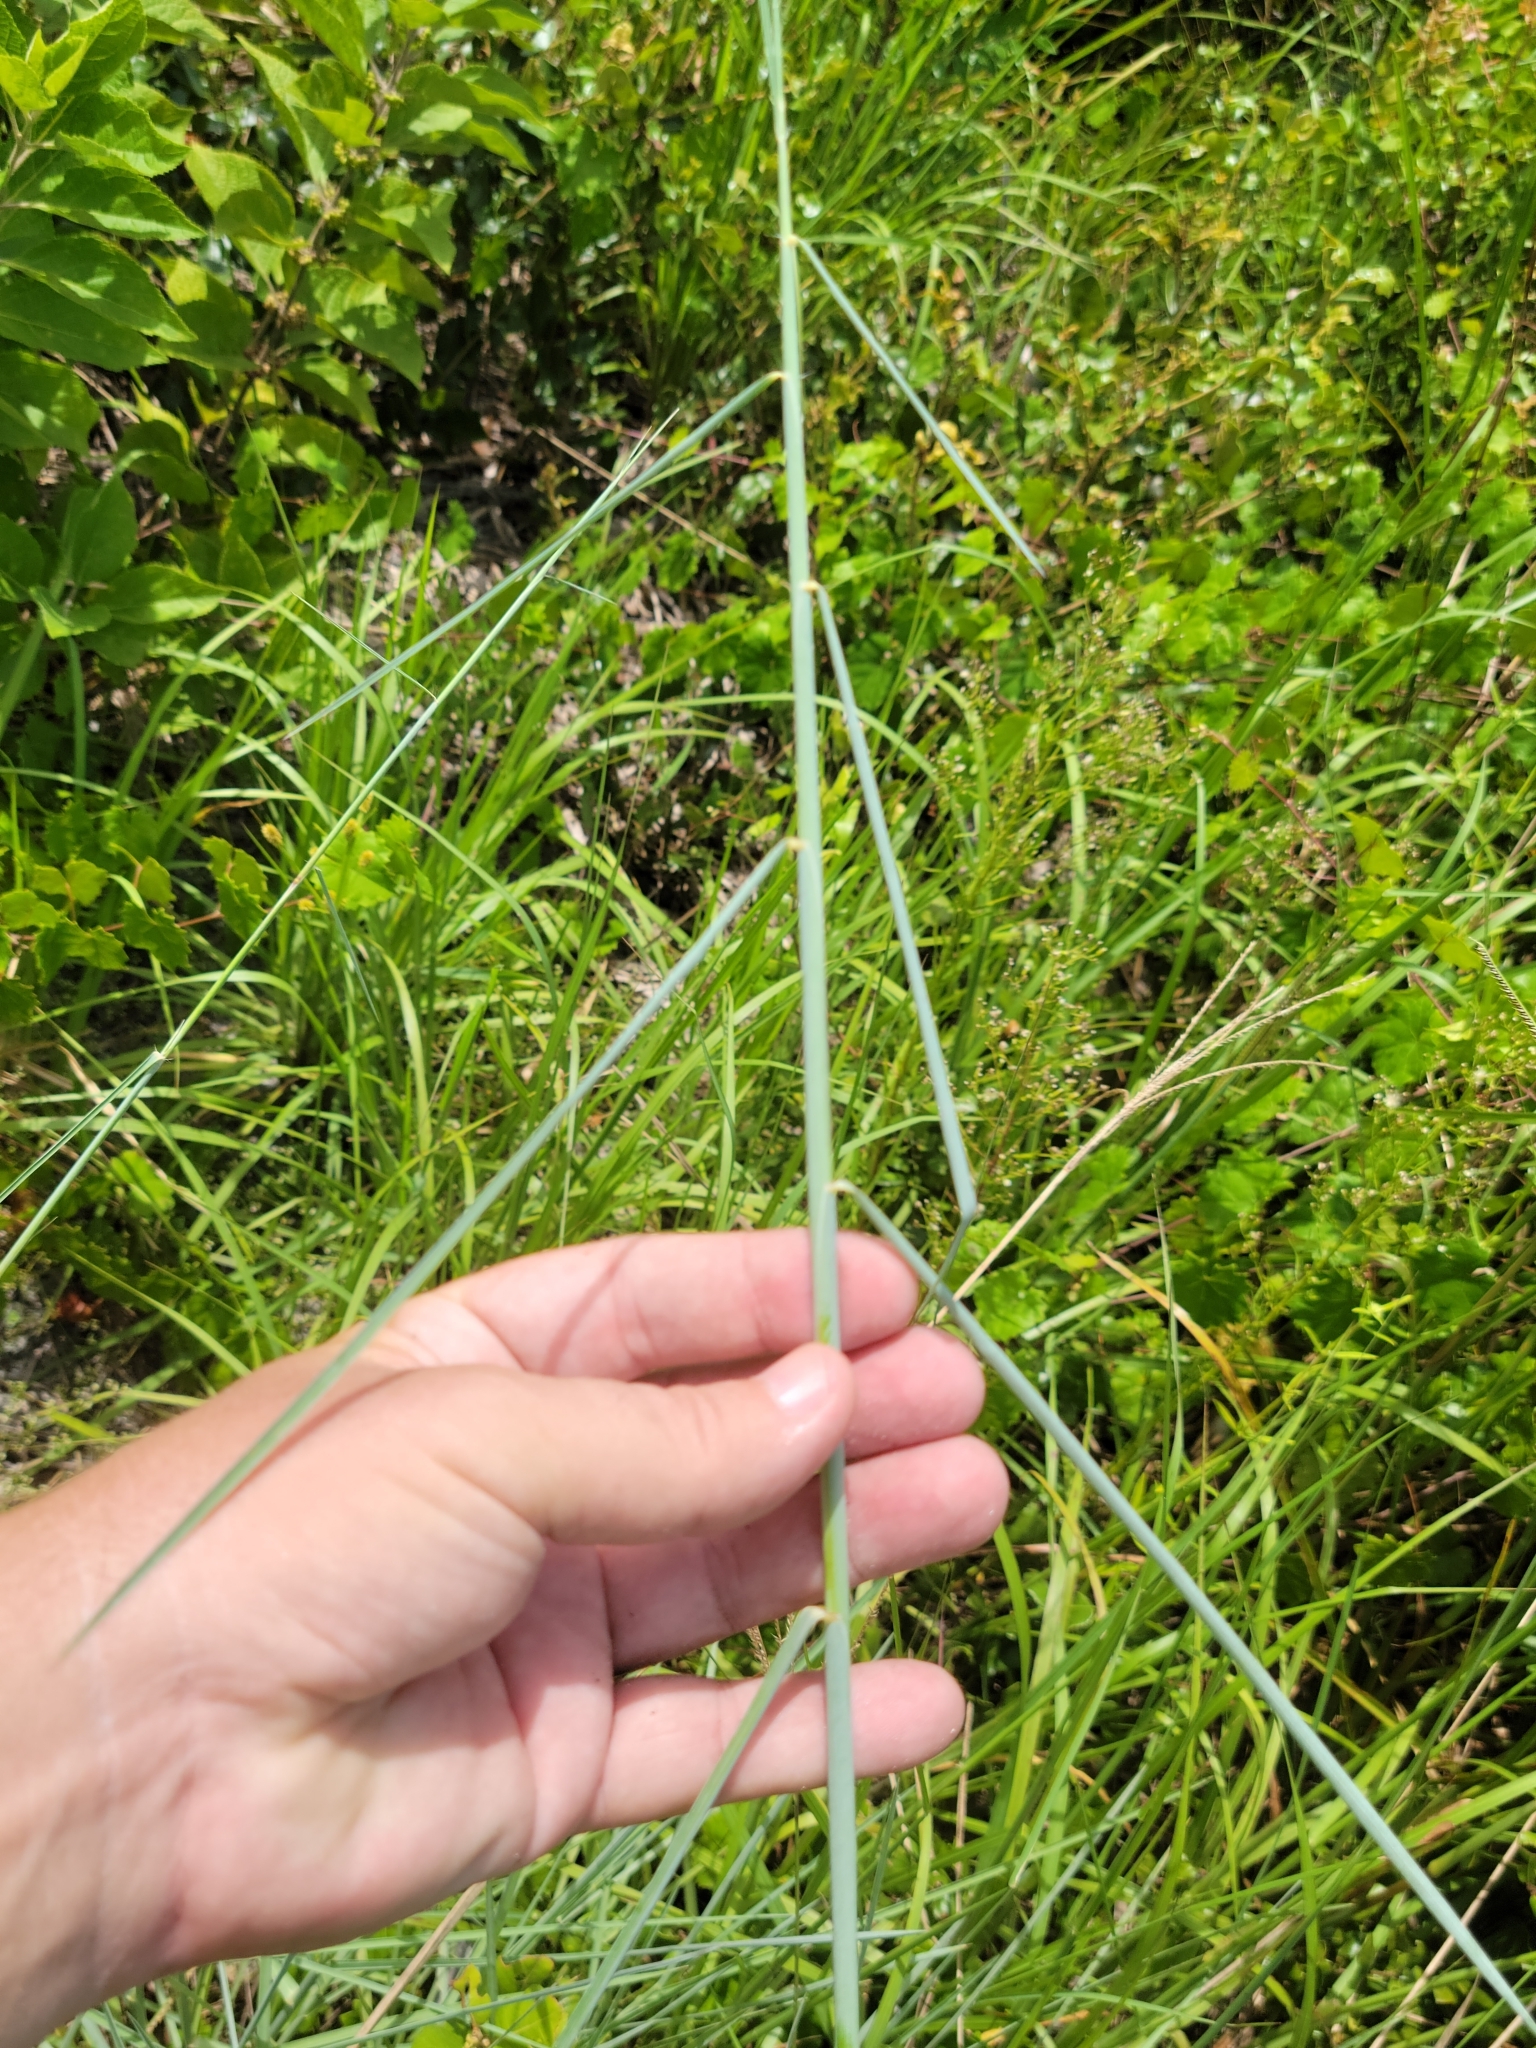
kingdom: Plantae
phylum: Tracheophyta
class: Liliopsida
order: Poales
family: Poaceae
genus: Schizachyrium
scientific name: Schizachyrium sanguineum
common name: Crimson bluestem
